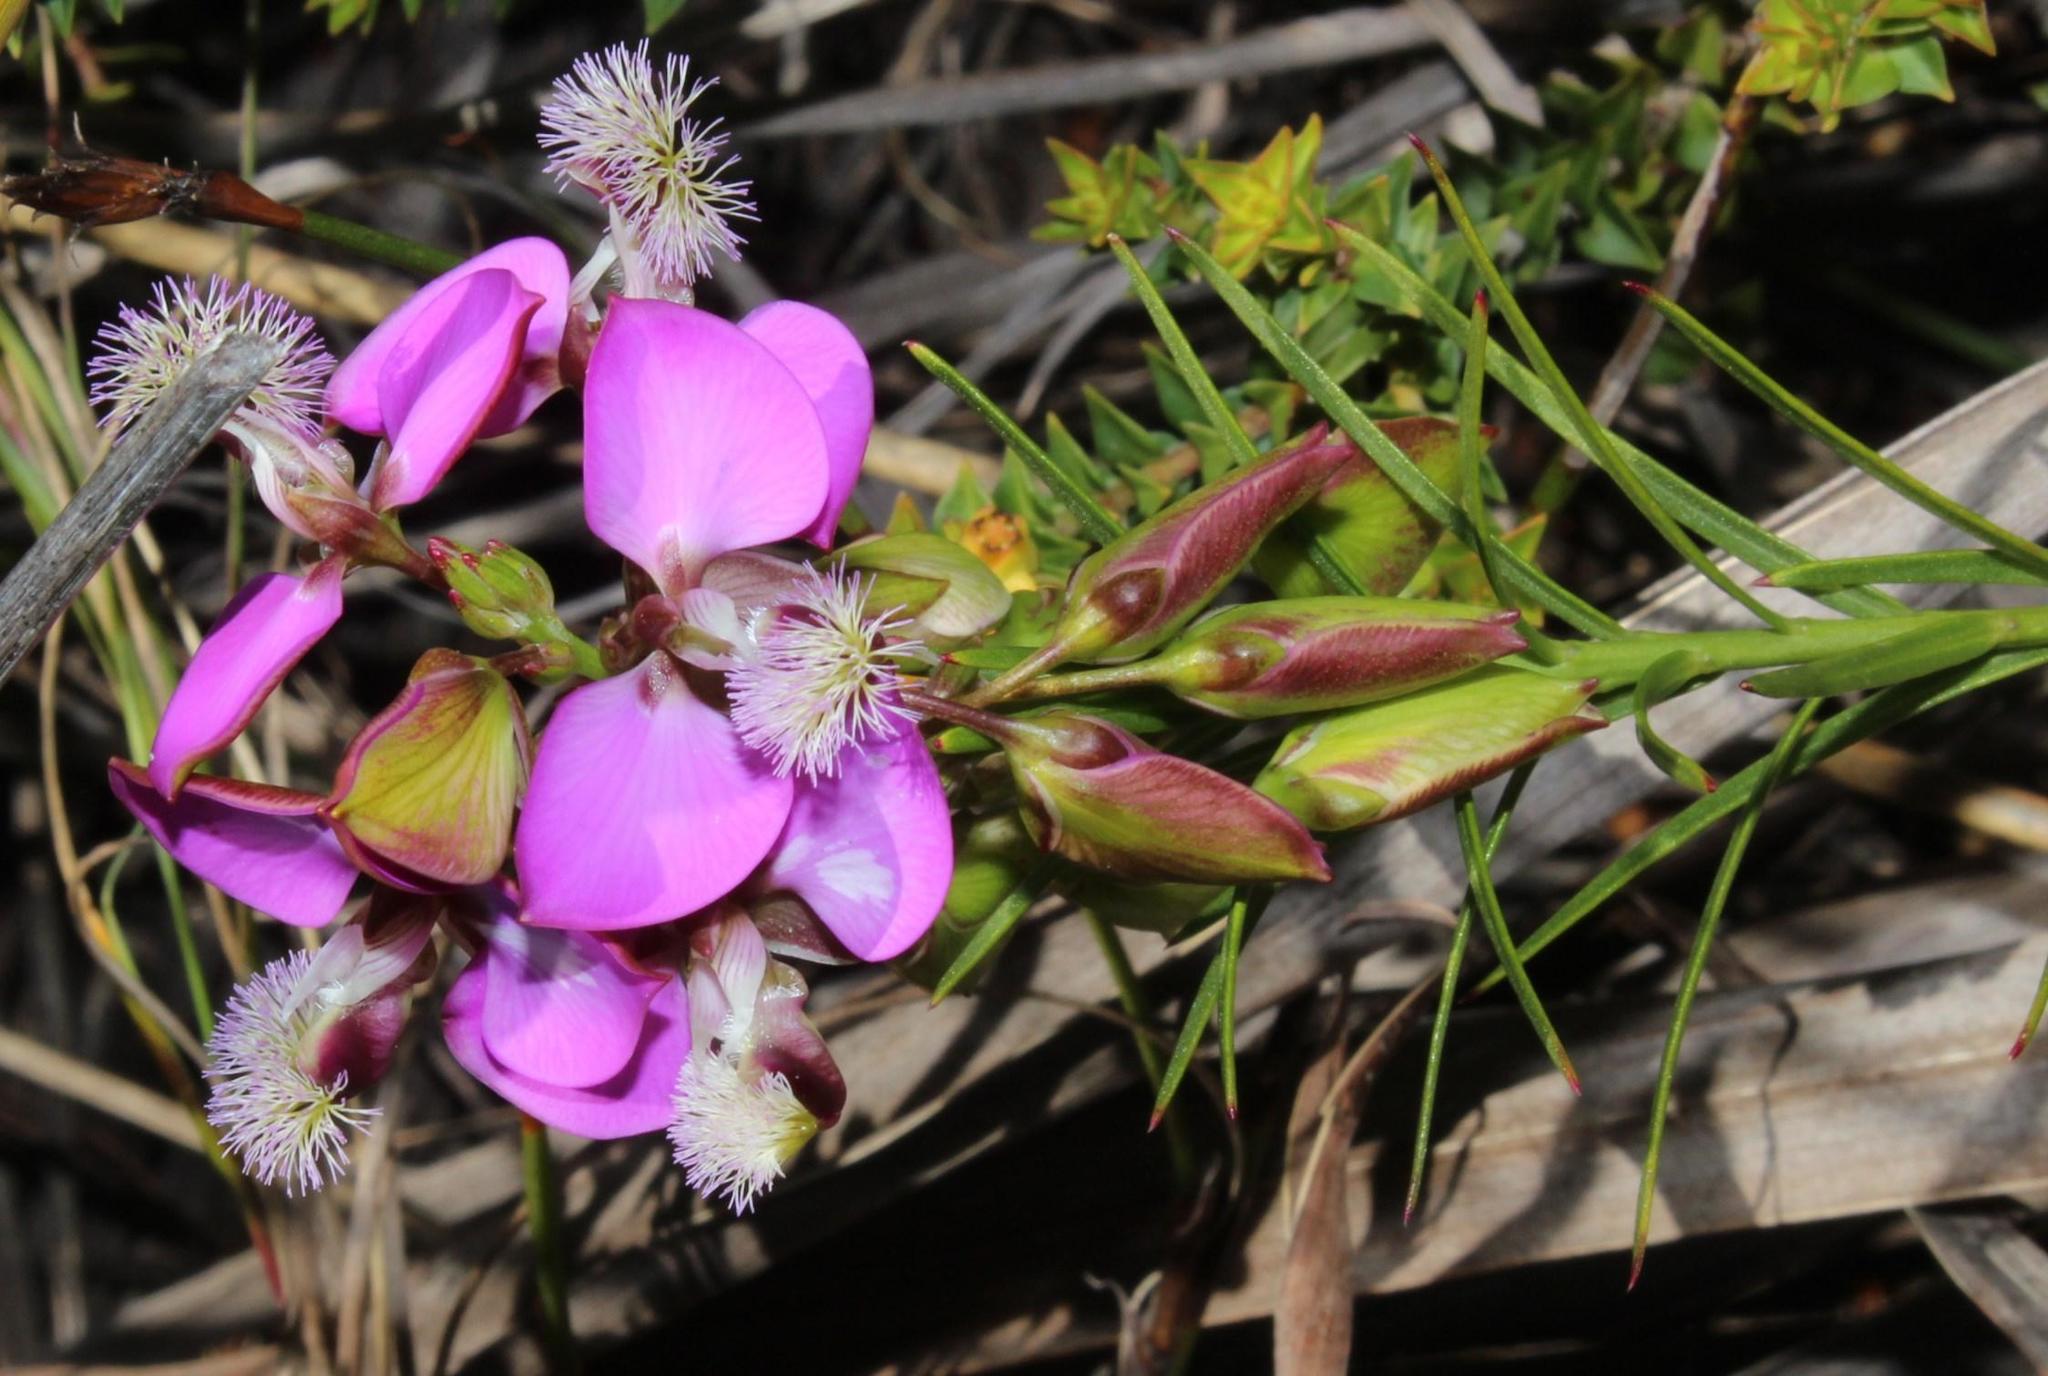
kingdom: Plantae
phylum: Tracheophyta
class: Magnoliopsida
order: Fabales
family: Polygalaceae
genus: Polygala
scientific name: Polygala bracteolata
